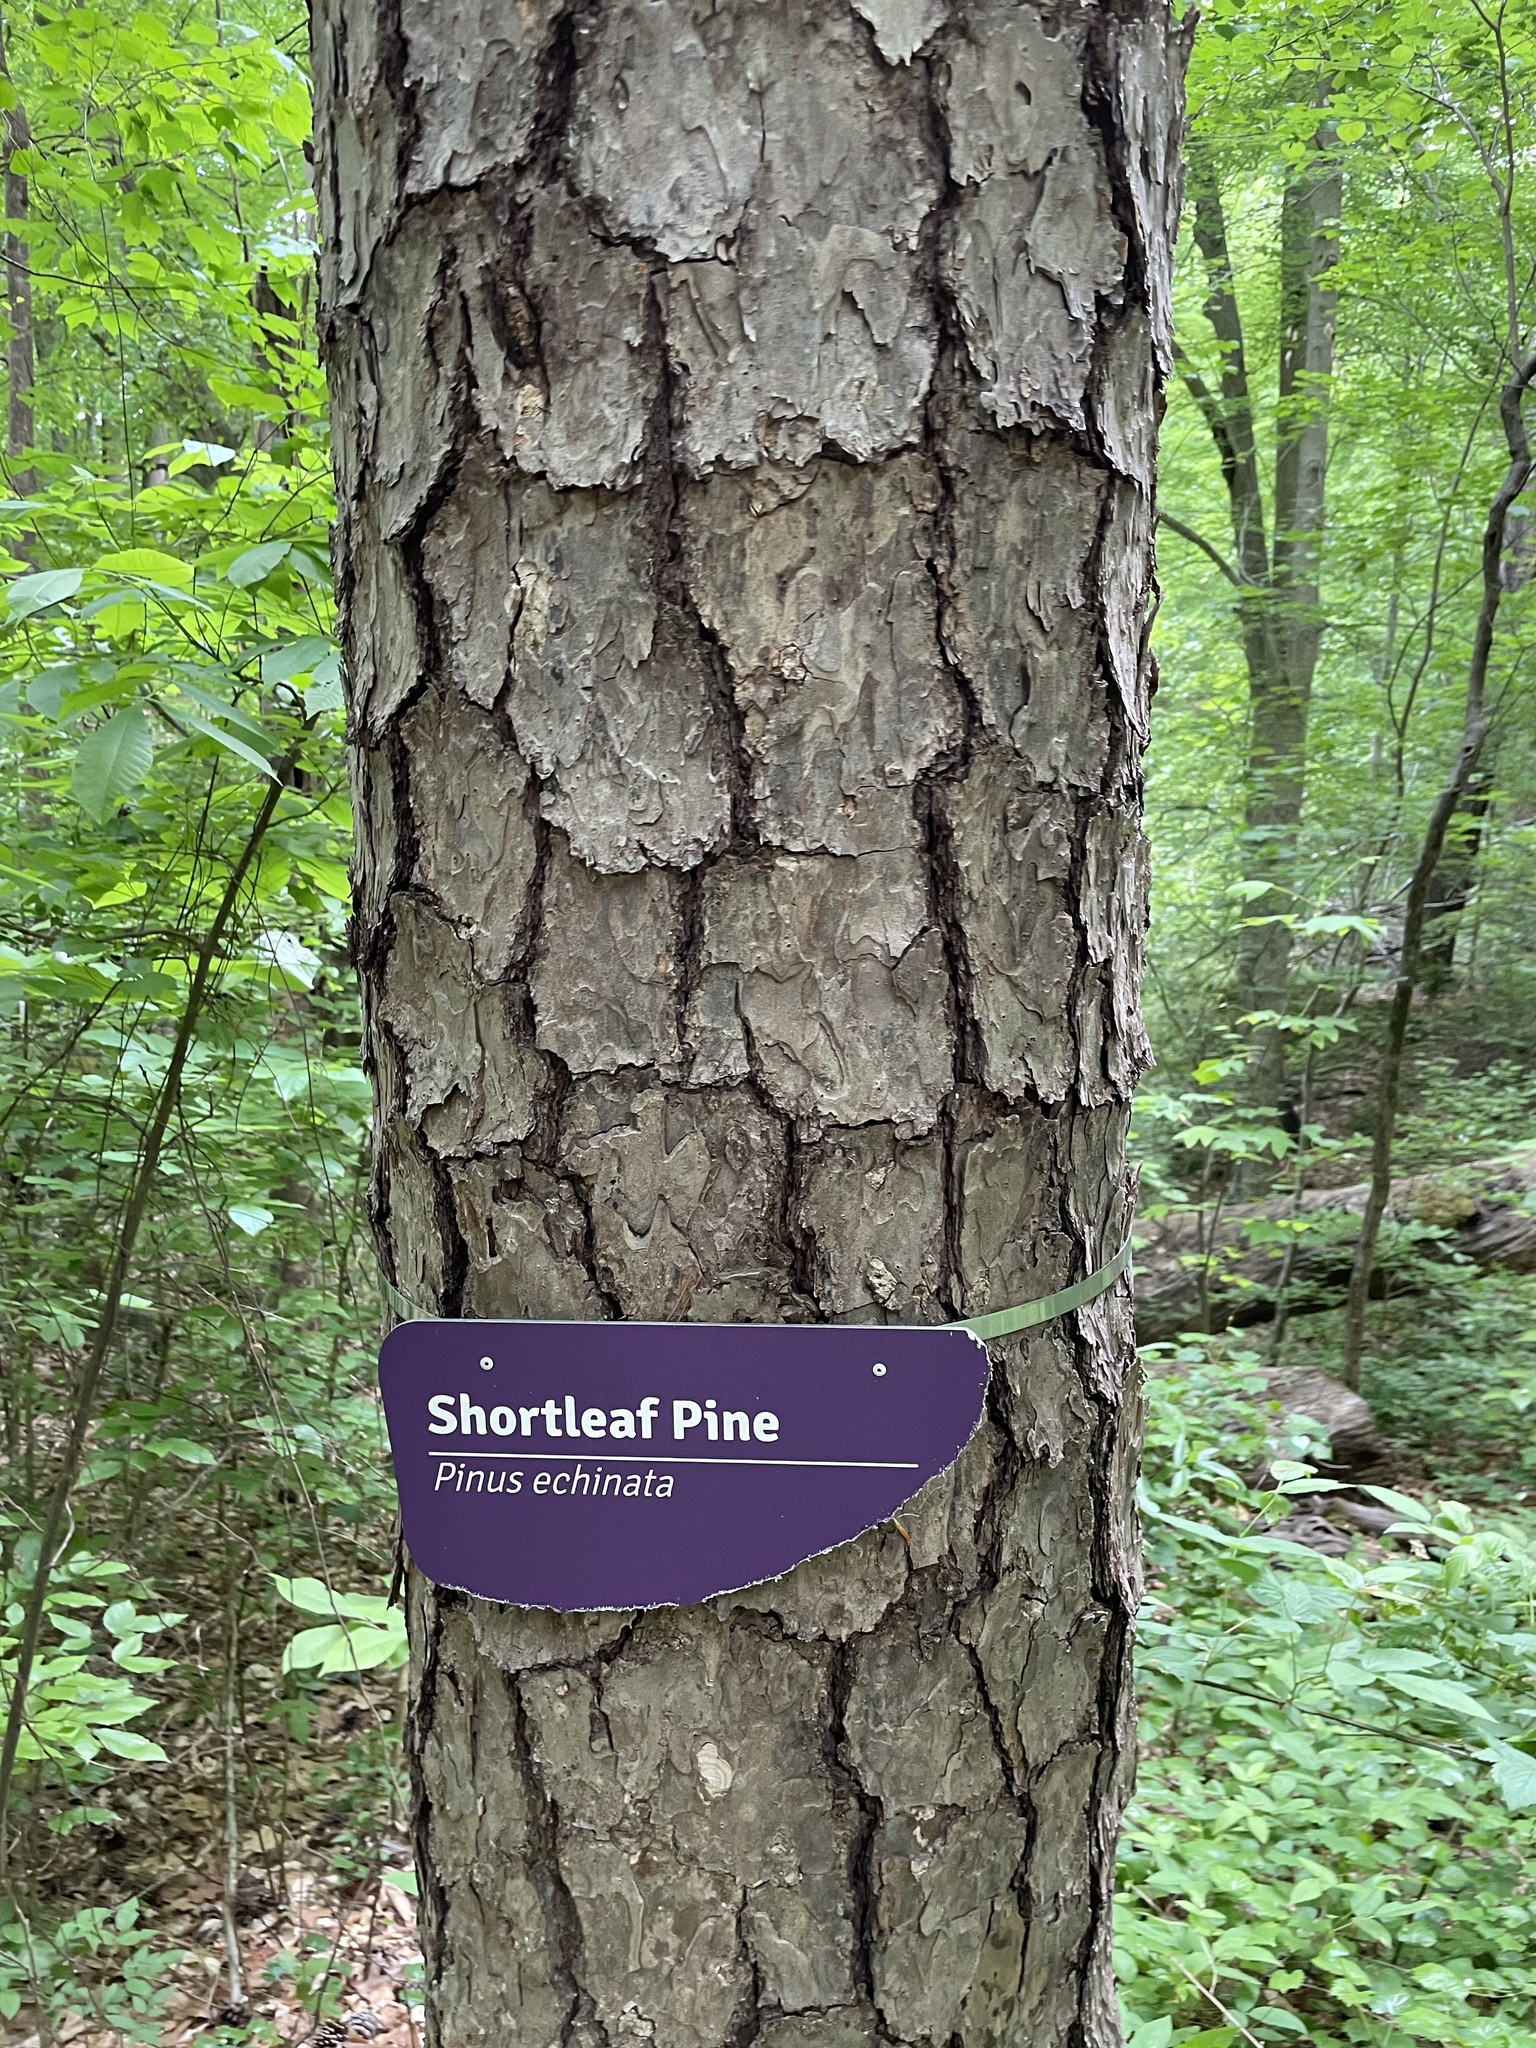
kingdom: Plantae
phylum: Tracheophyta
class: Pinopsida
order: Pinales
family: Pinaceae
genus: Pinus
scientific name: Pinus echinata
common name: Shortleaf pine
